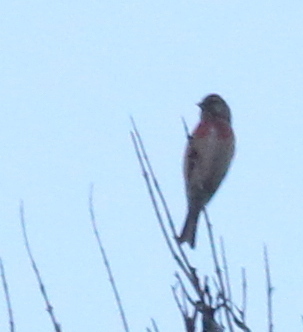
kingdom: Animalia
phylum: Chordata
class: Aves
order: Passeriformes
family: Fringillidae
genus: Linaria
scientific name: Linaria cannabina
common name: Common linnet
